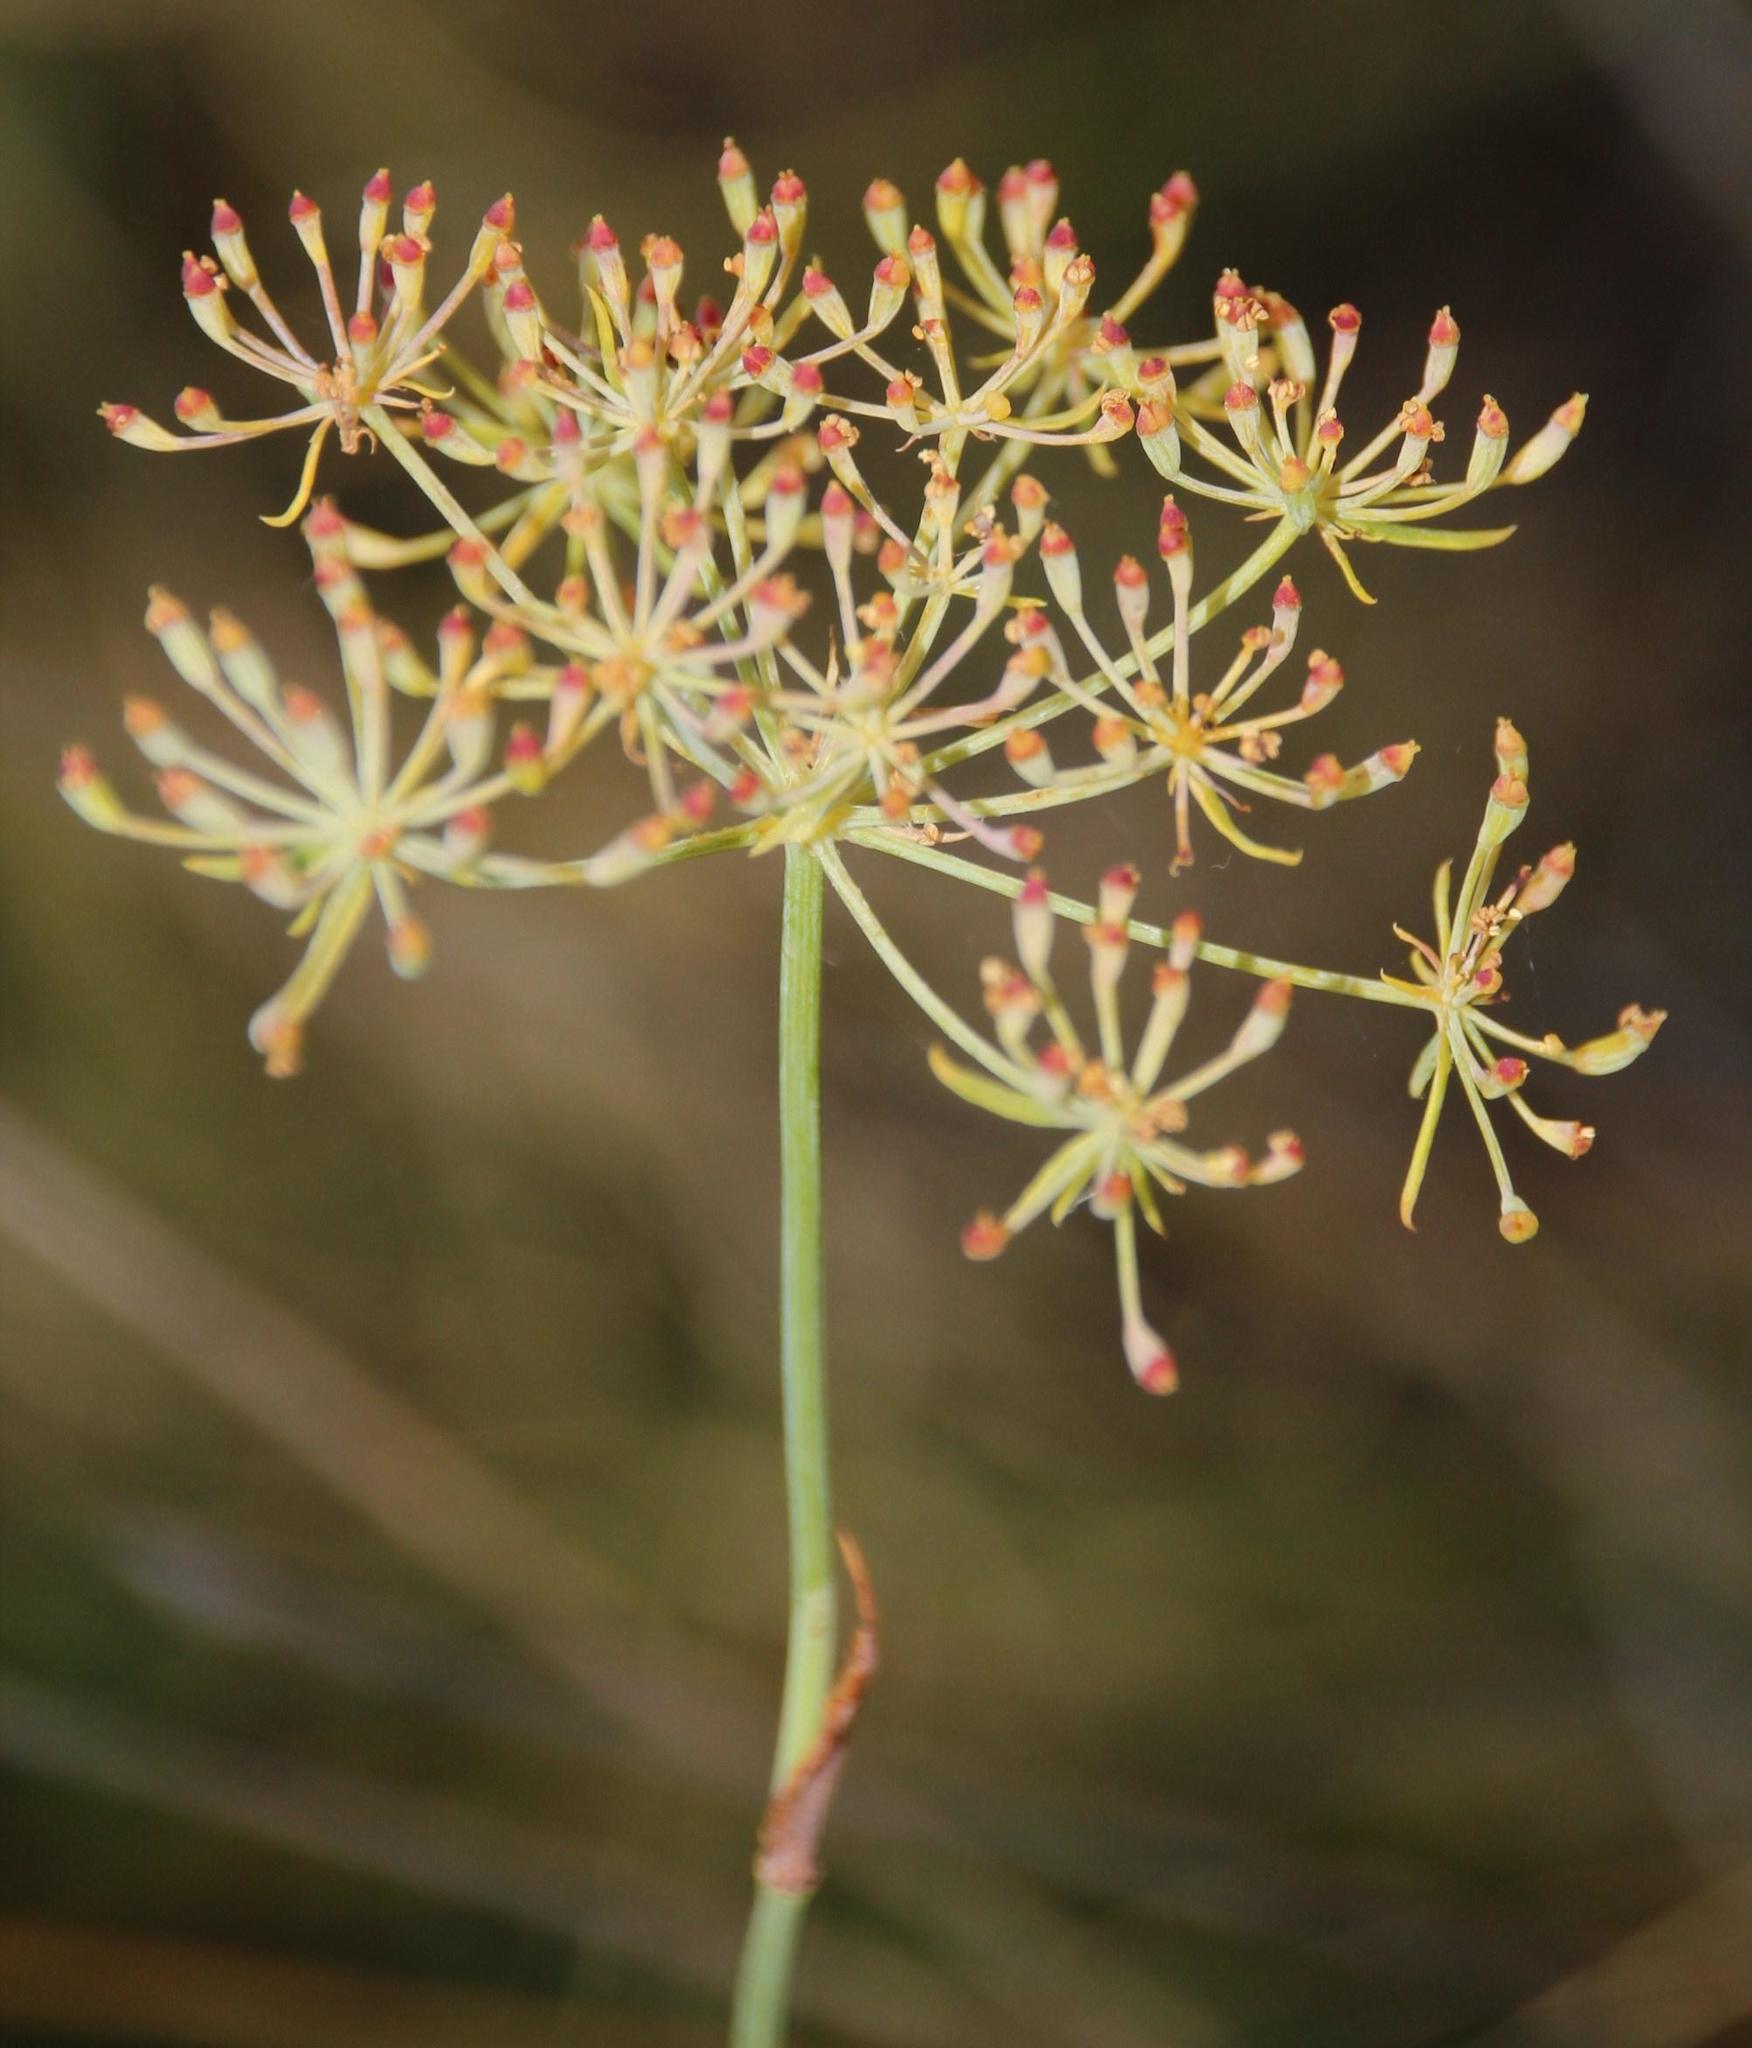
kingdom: Plantae
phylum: Tracheophyta
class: Magnoliopsida
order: Apiales
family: Apiaceae
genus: Notobubon
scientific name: Notobubon laevigatum
